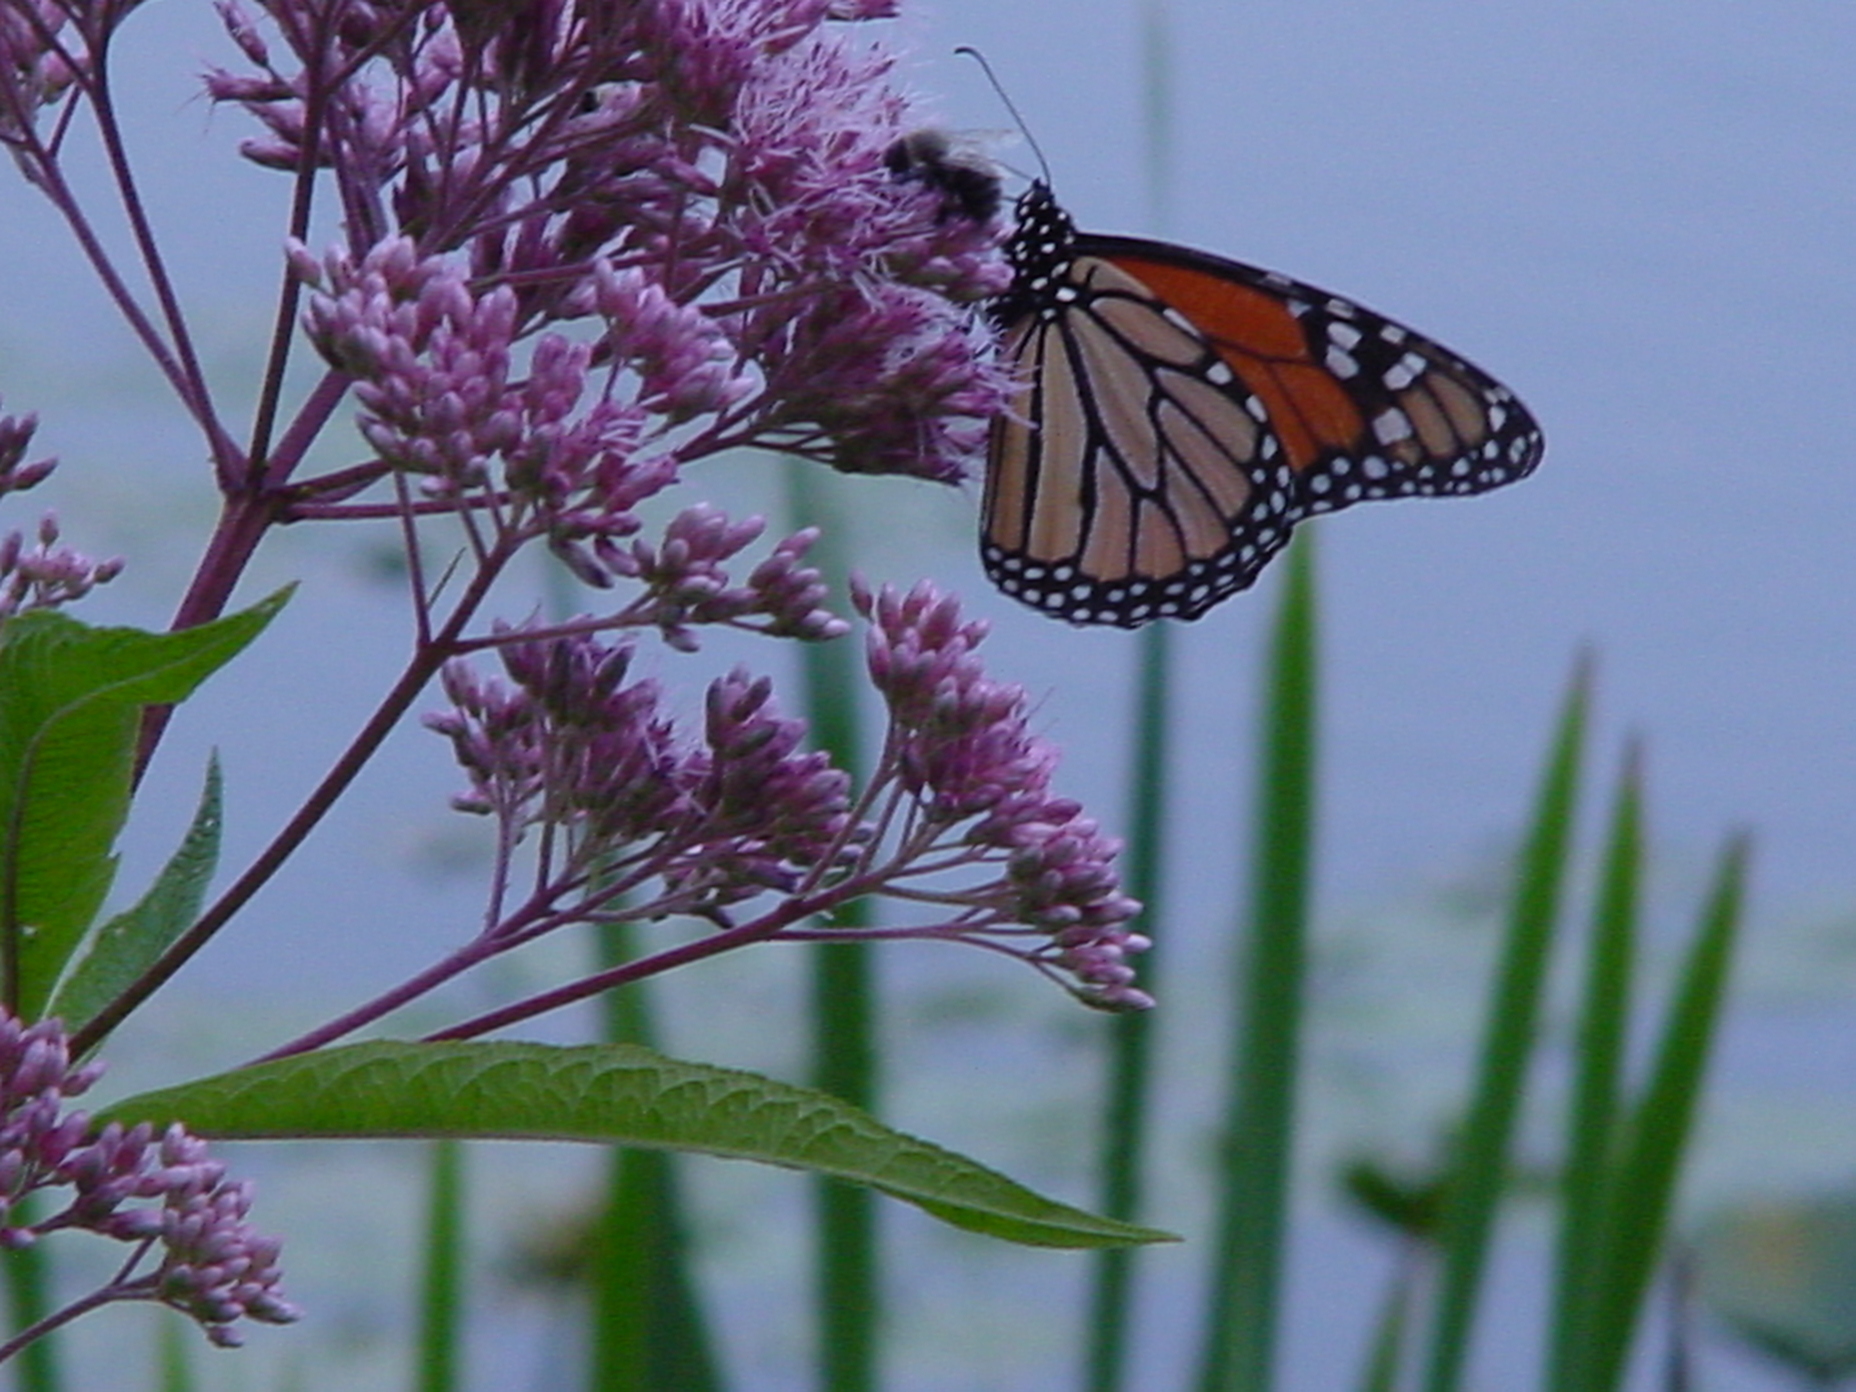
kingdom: Animalia
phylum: Arthropoda
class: Insecta
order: Lepidoptera
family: Nymphalidae
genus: Danaus
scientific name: Danaus plexippus
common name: Monarch
